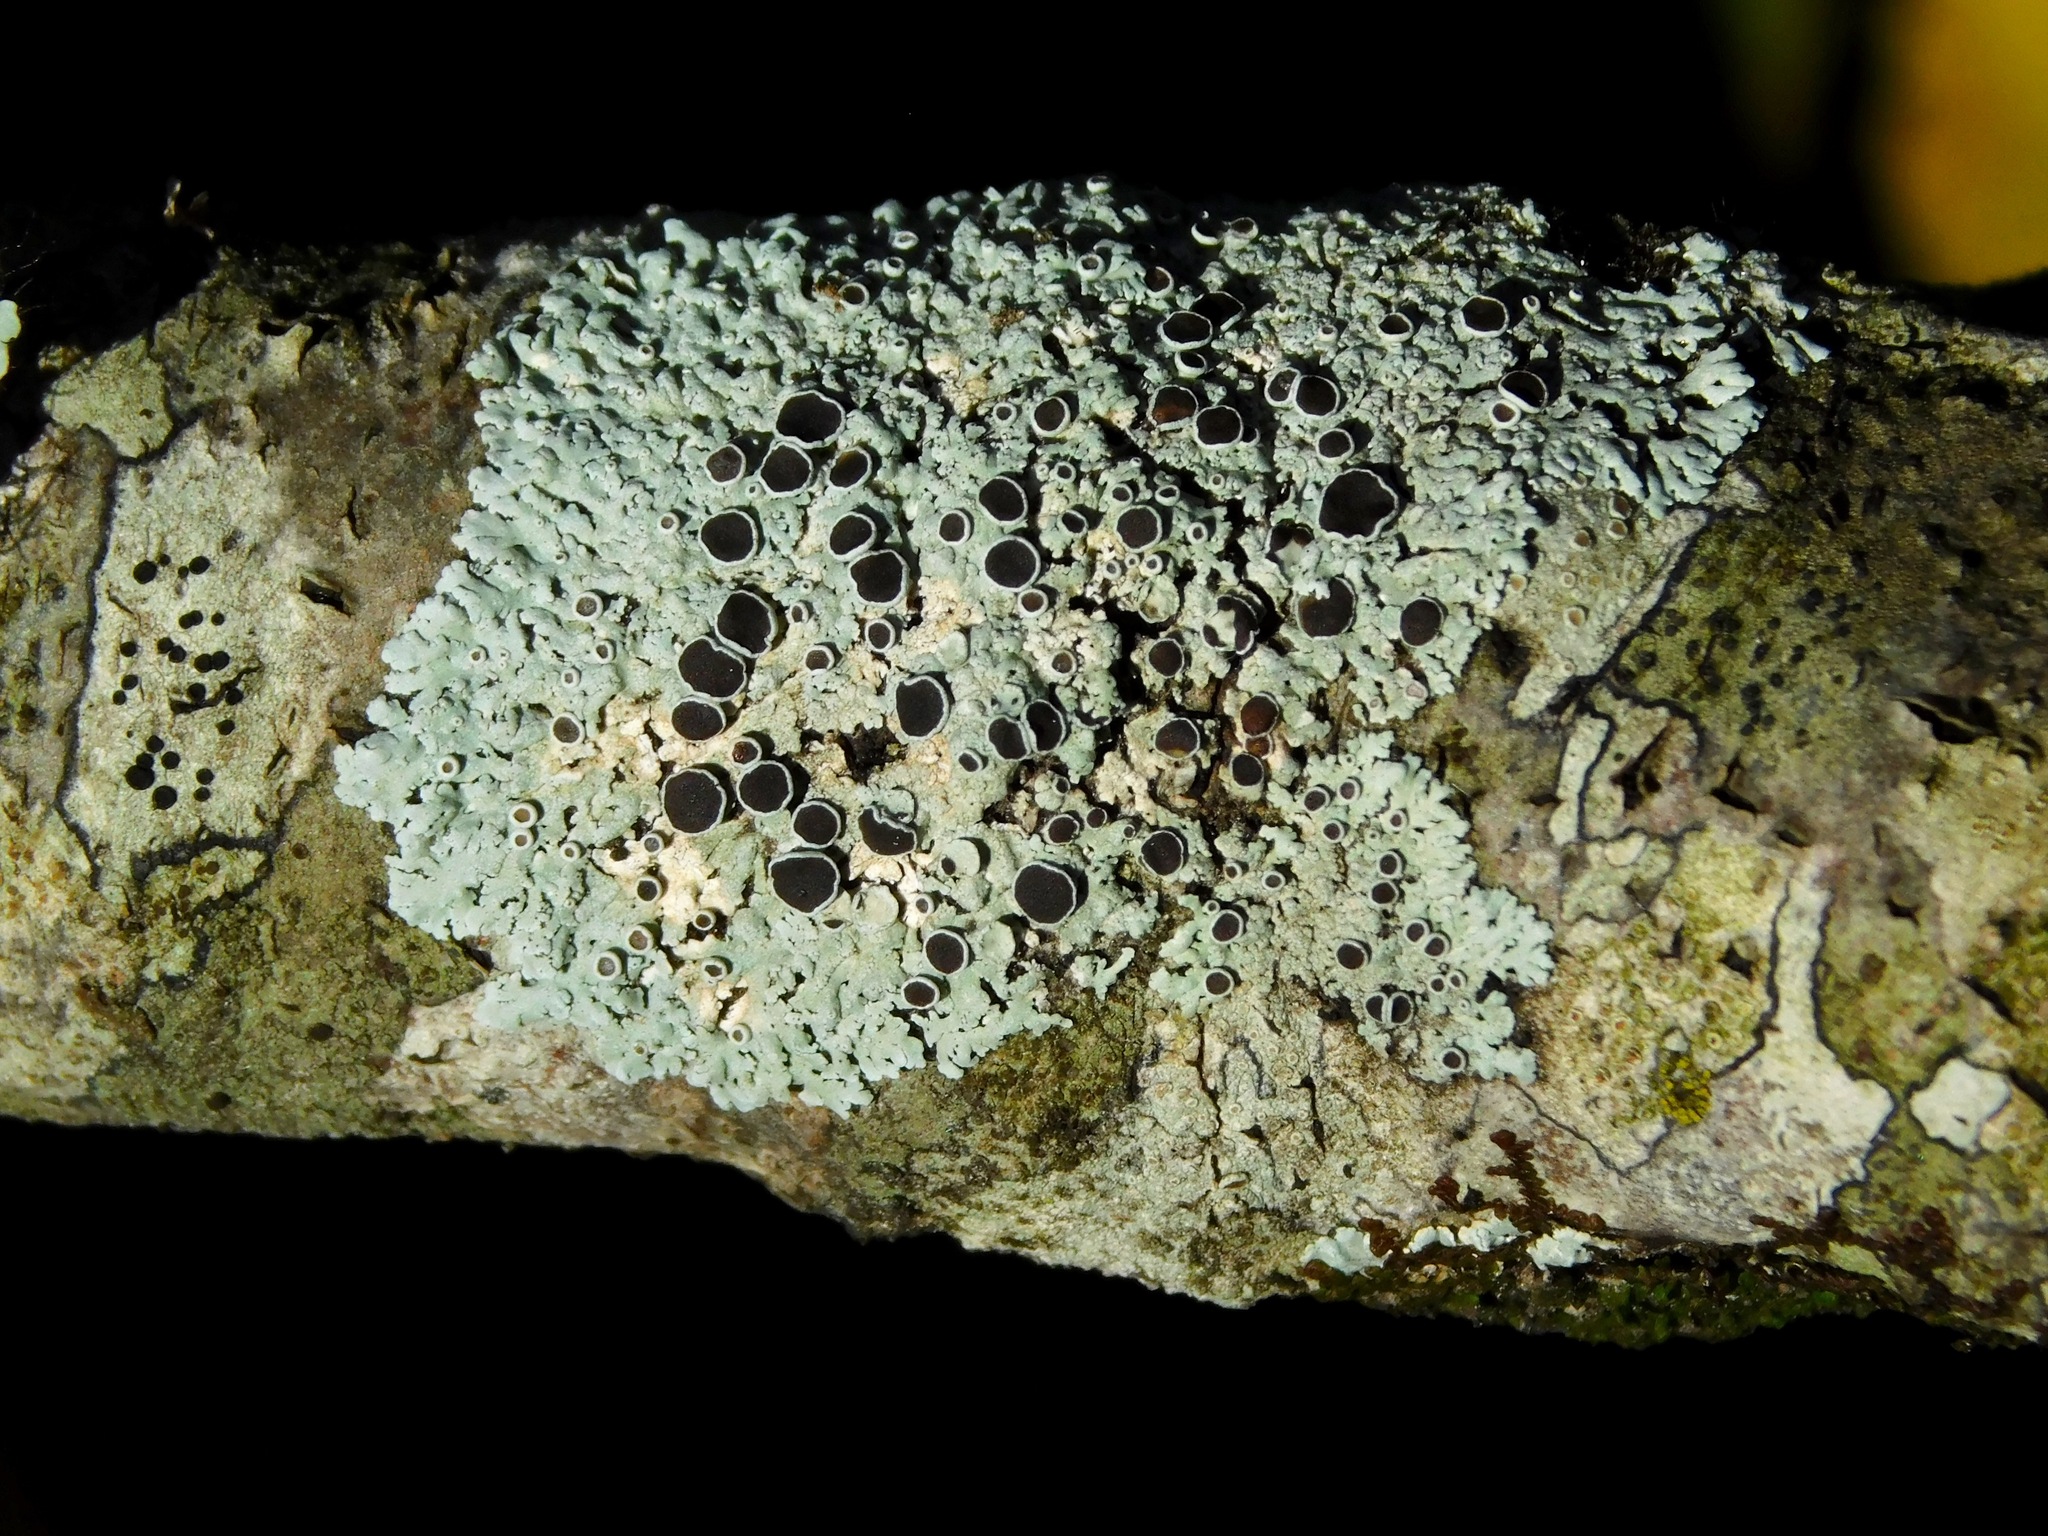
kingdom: Fungi
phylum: Ascomycota
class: Lecanoromycetes
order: Caliciales
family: Physciaceae
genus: Physcia
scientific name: Physcia stellaris
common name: Star rosette lichen
